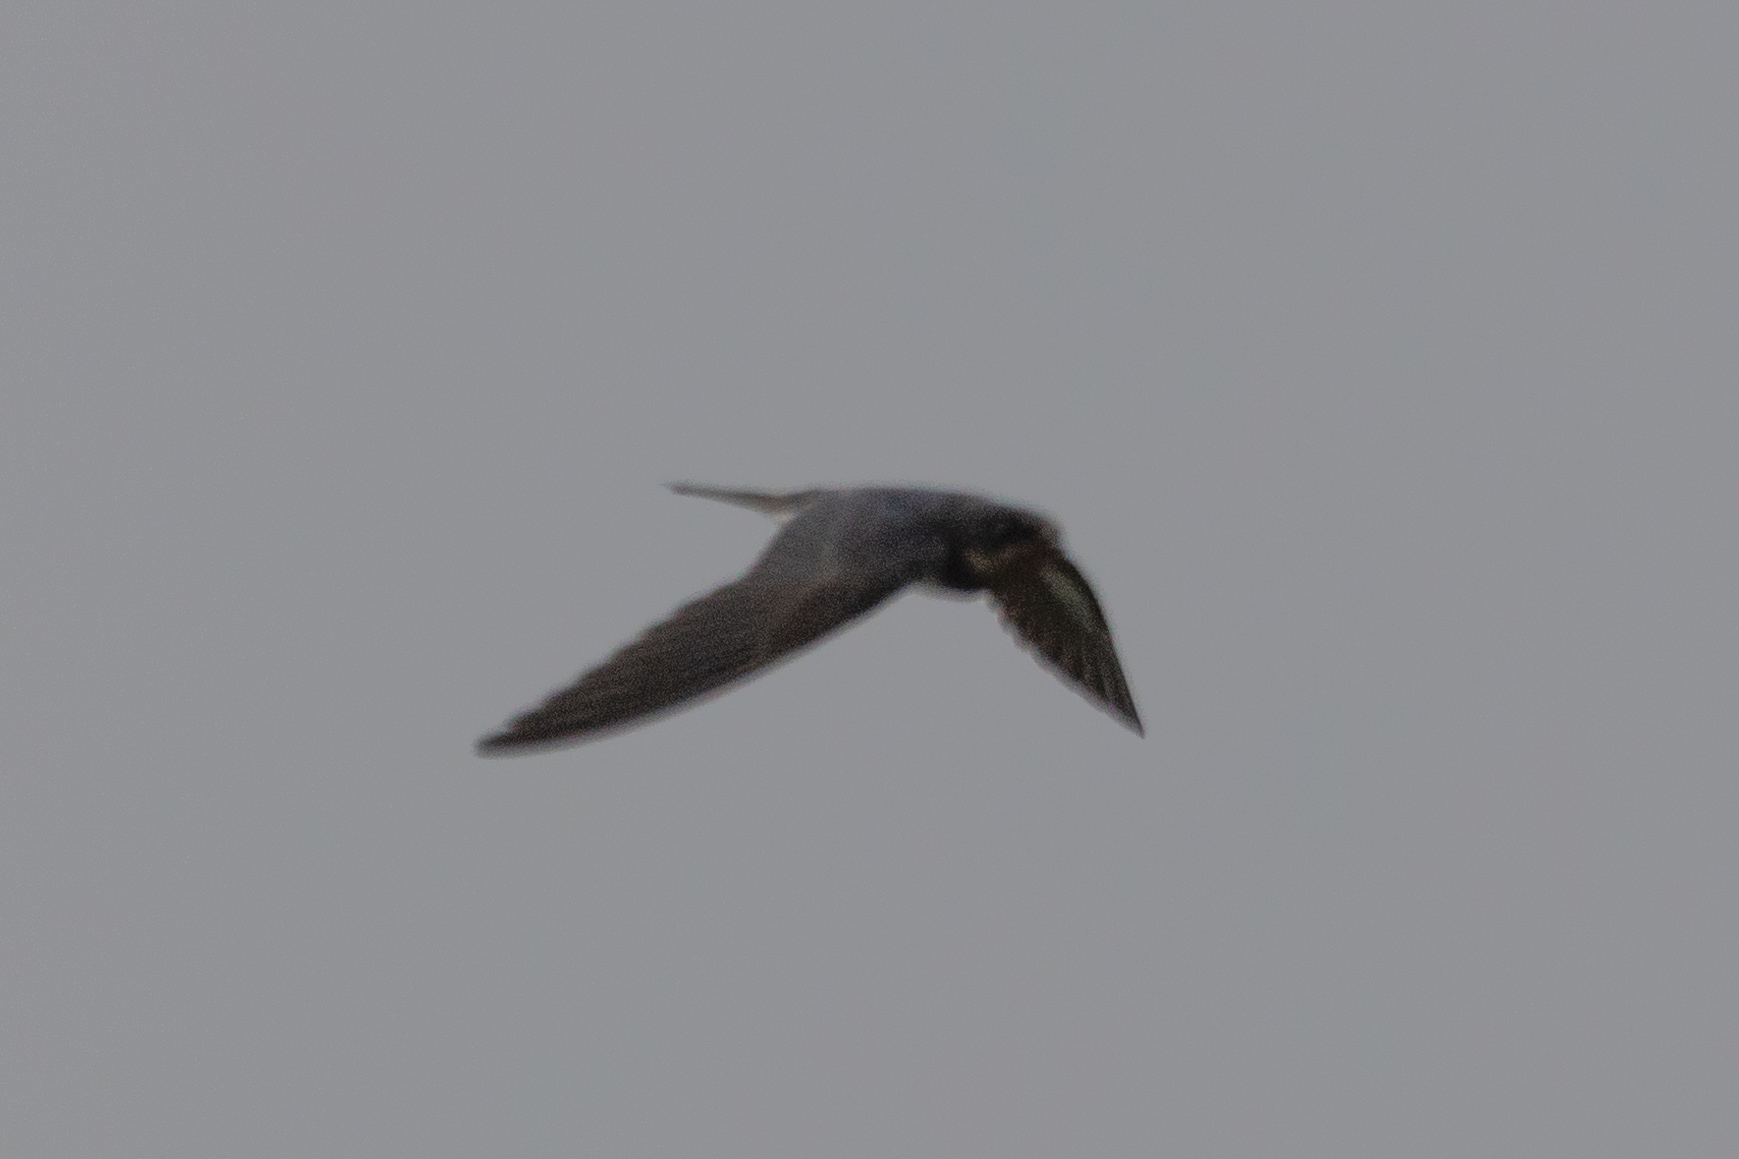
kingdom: Animalia
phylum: Chordata
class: Aves
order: Passeriformes
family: Hirundinidae
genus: Hirundo
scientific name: Hirundo rustica
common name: Barn swallow
